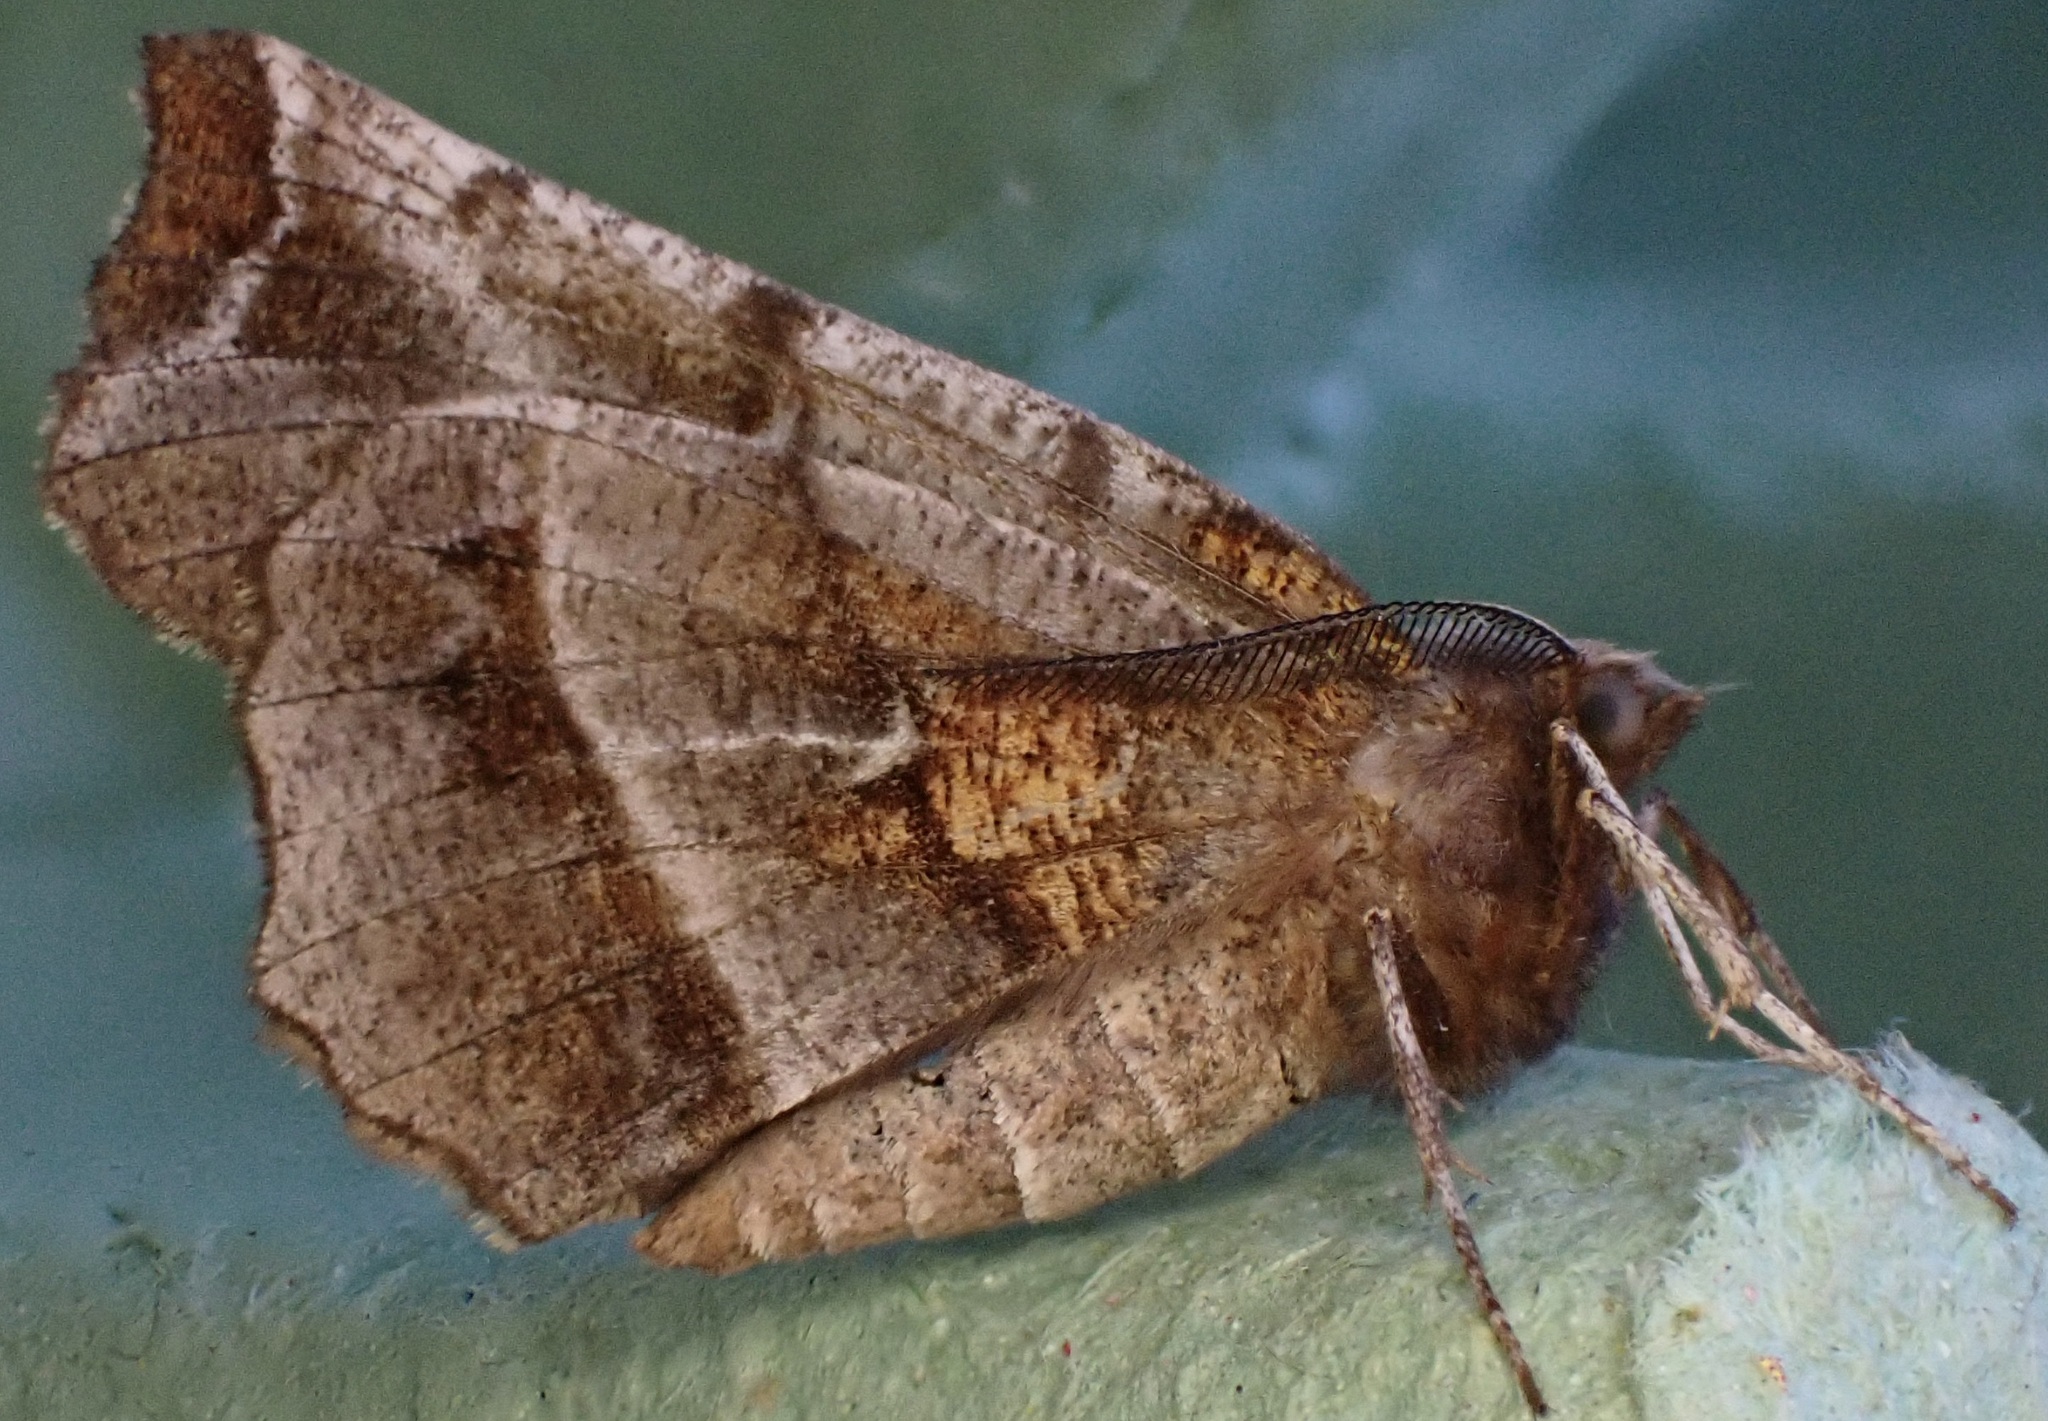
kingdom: Animalia
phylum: Arthropoda
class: Insecta
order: Lepidoptera
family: Geometridae
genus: Selenia
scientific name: Selenia dentaria
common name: Early thorn
